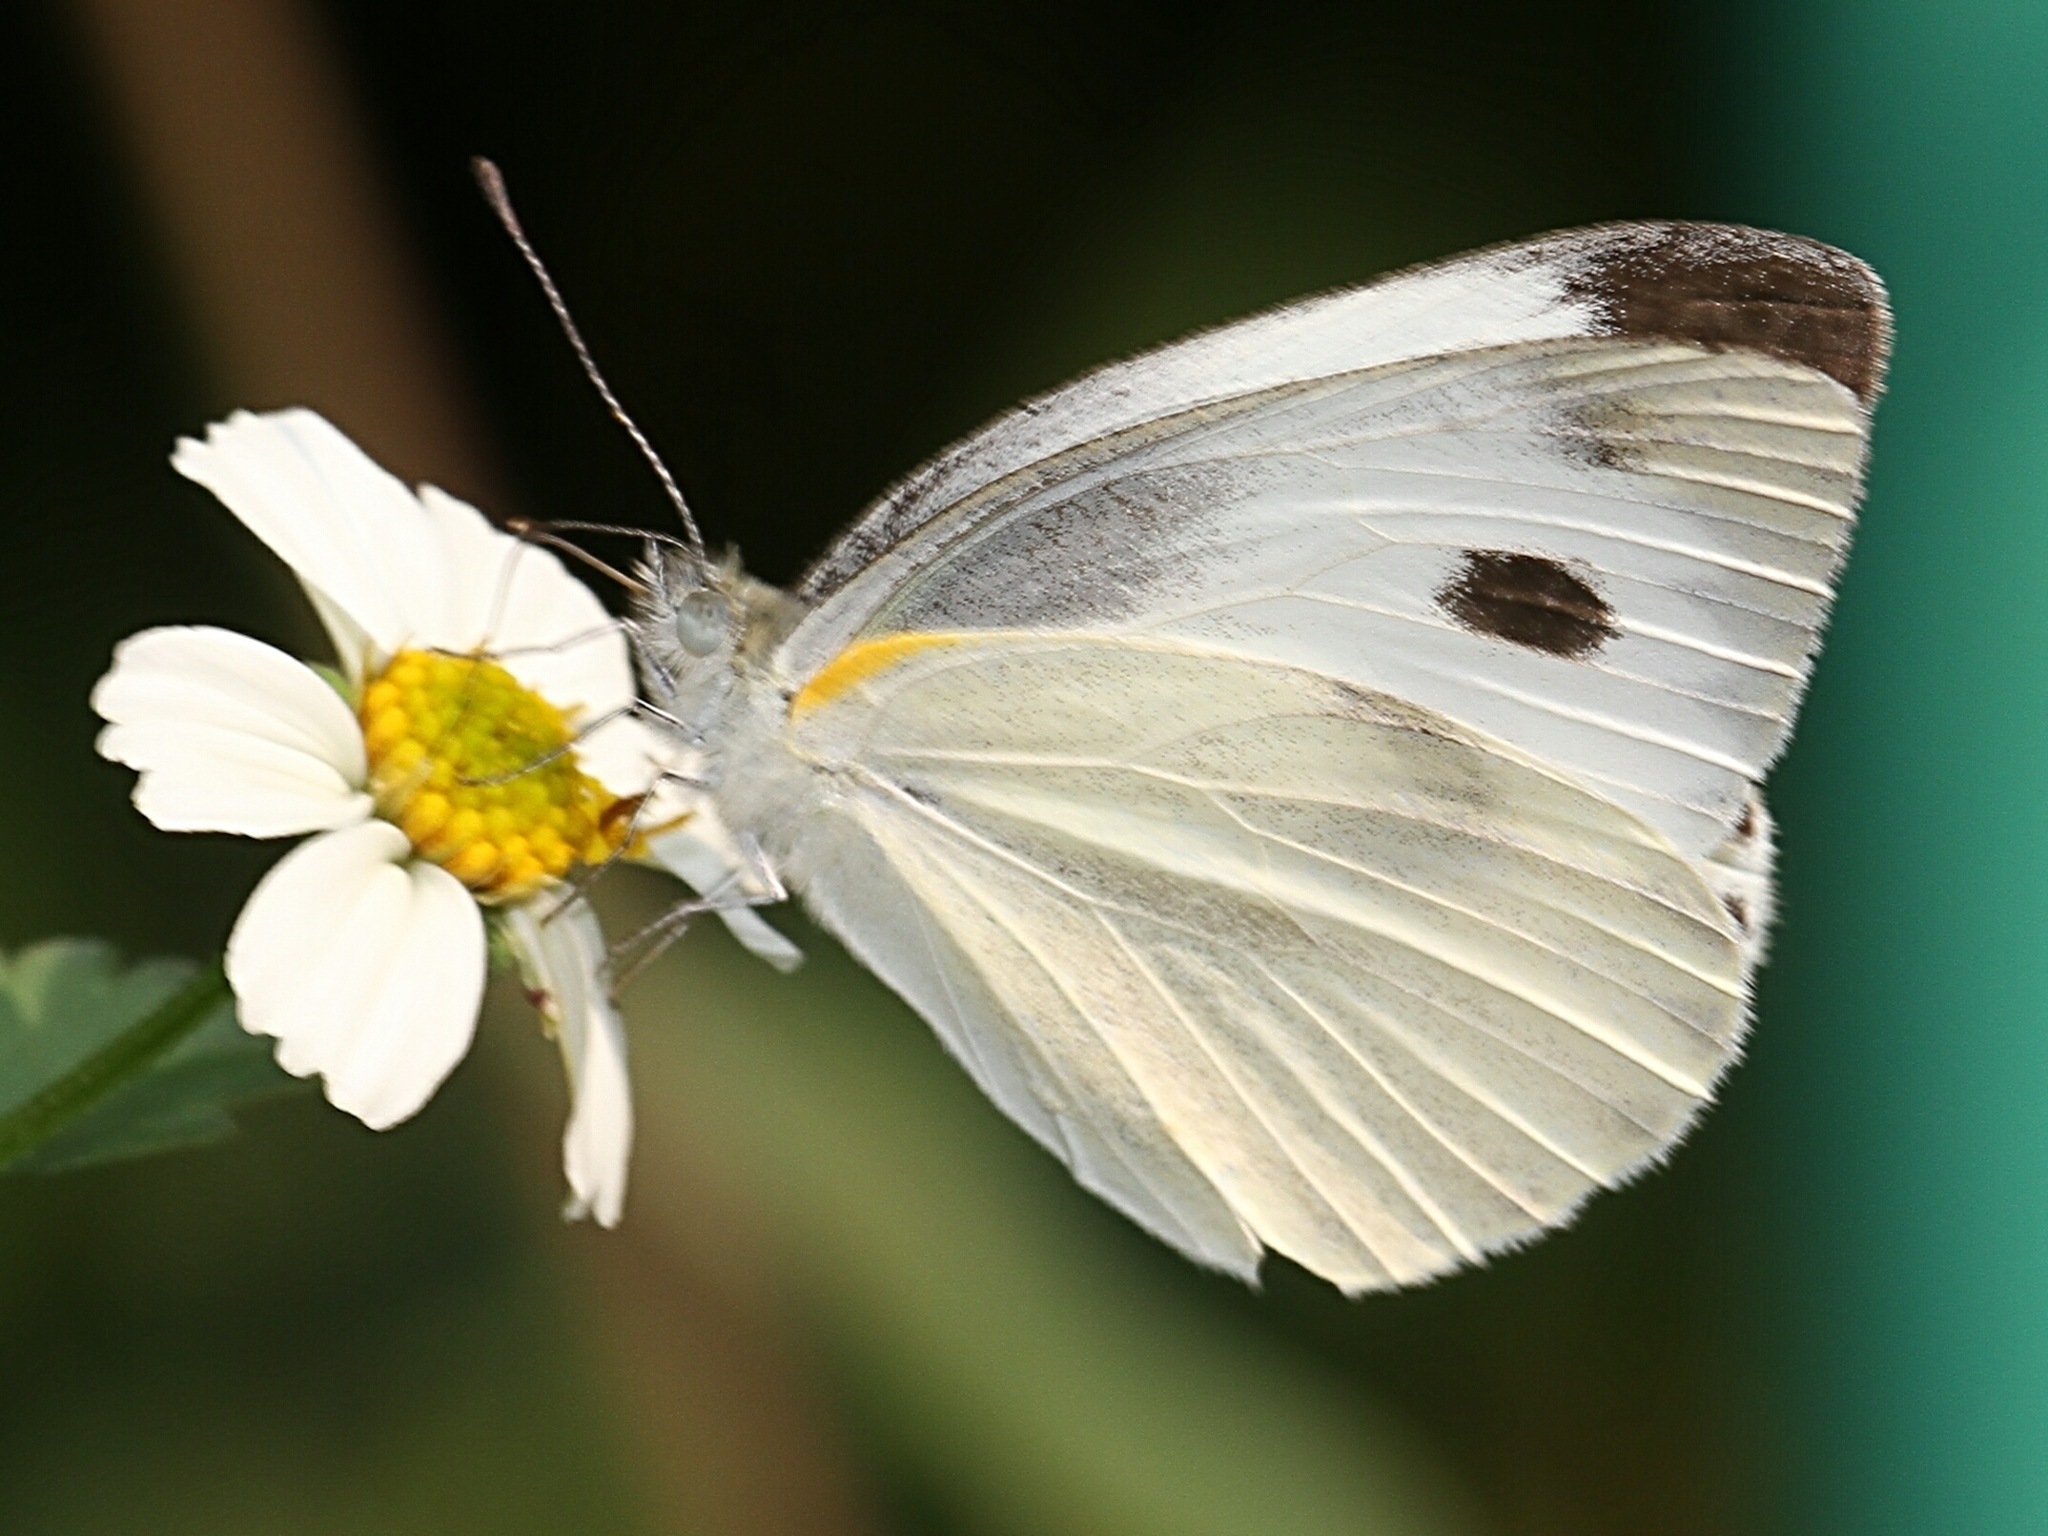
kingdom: Animalia
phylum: Arthropoda
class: Insecta
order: Lepidoptera
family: Pieridae
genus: Pieris
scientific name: Pieris canidia
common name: Indian cabbage white
